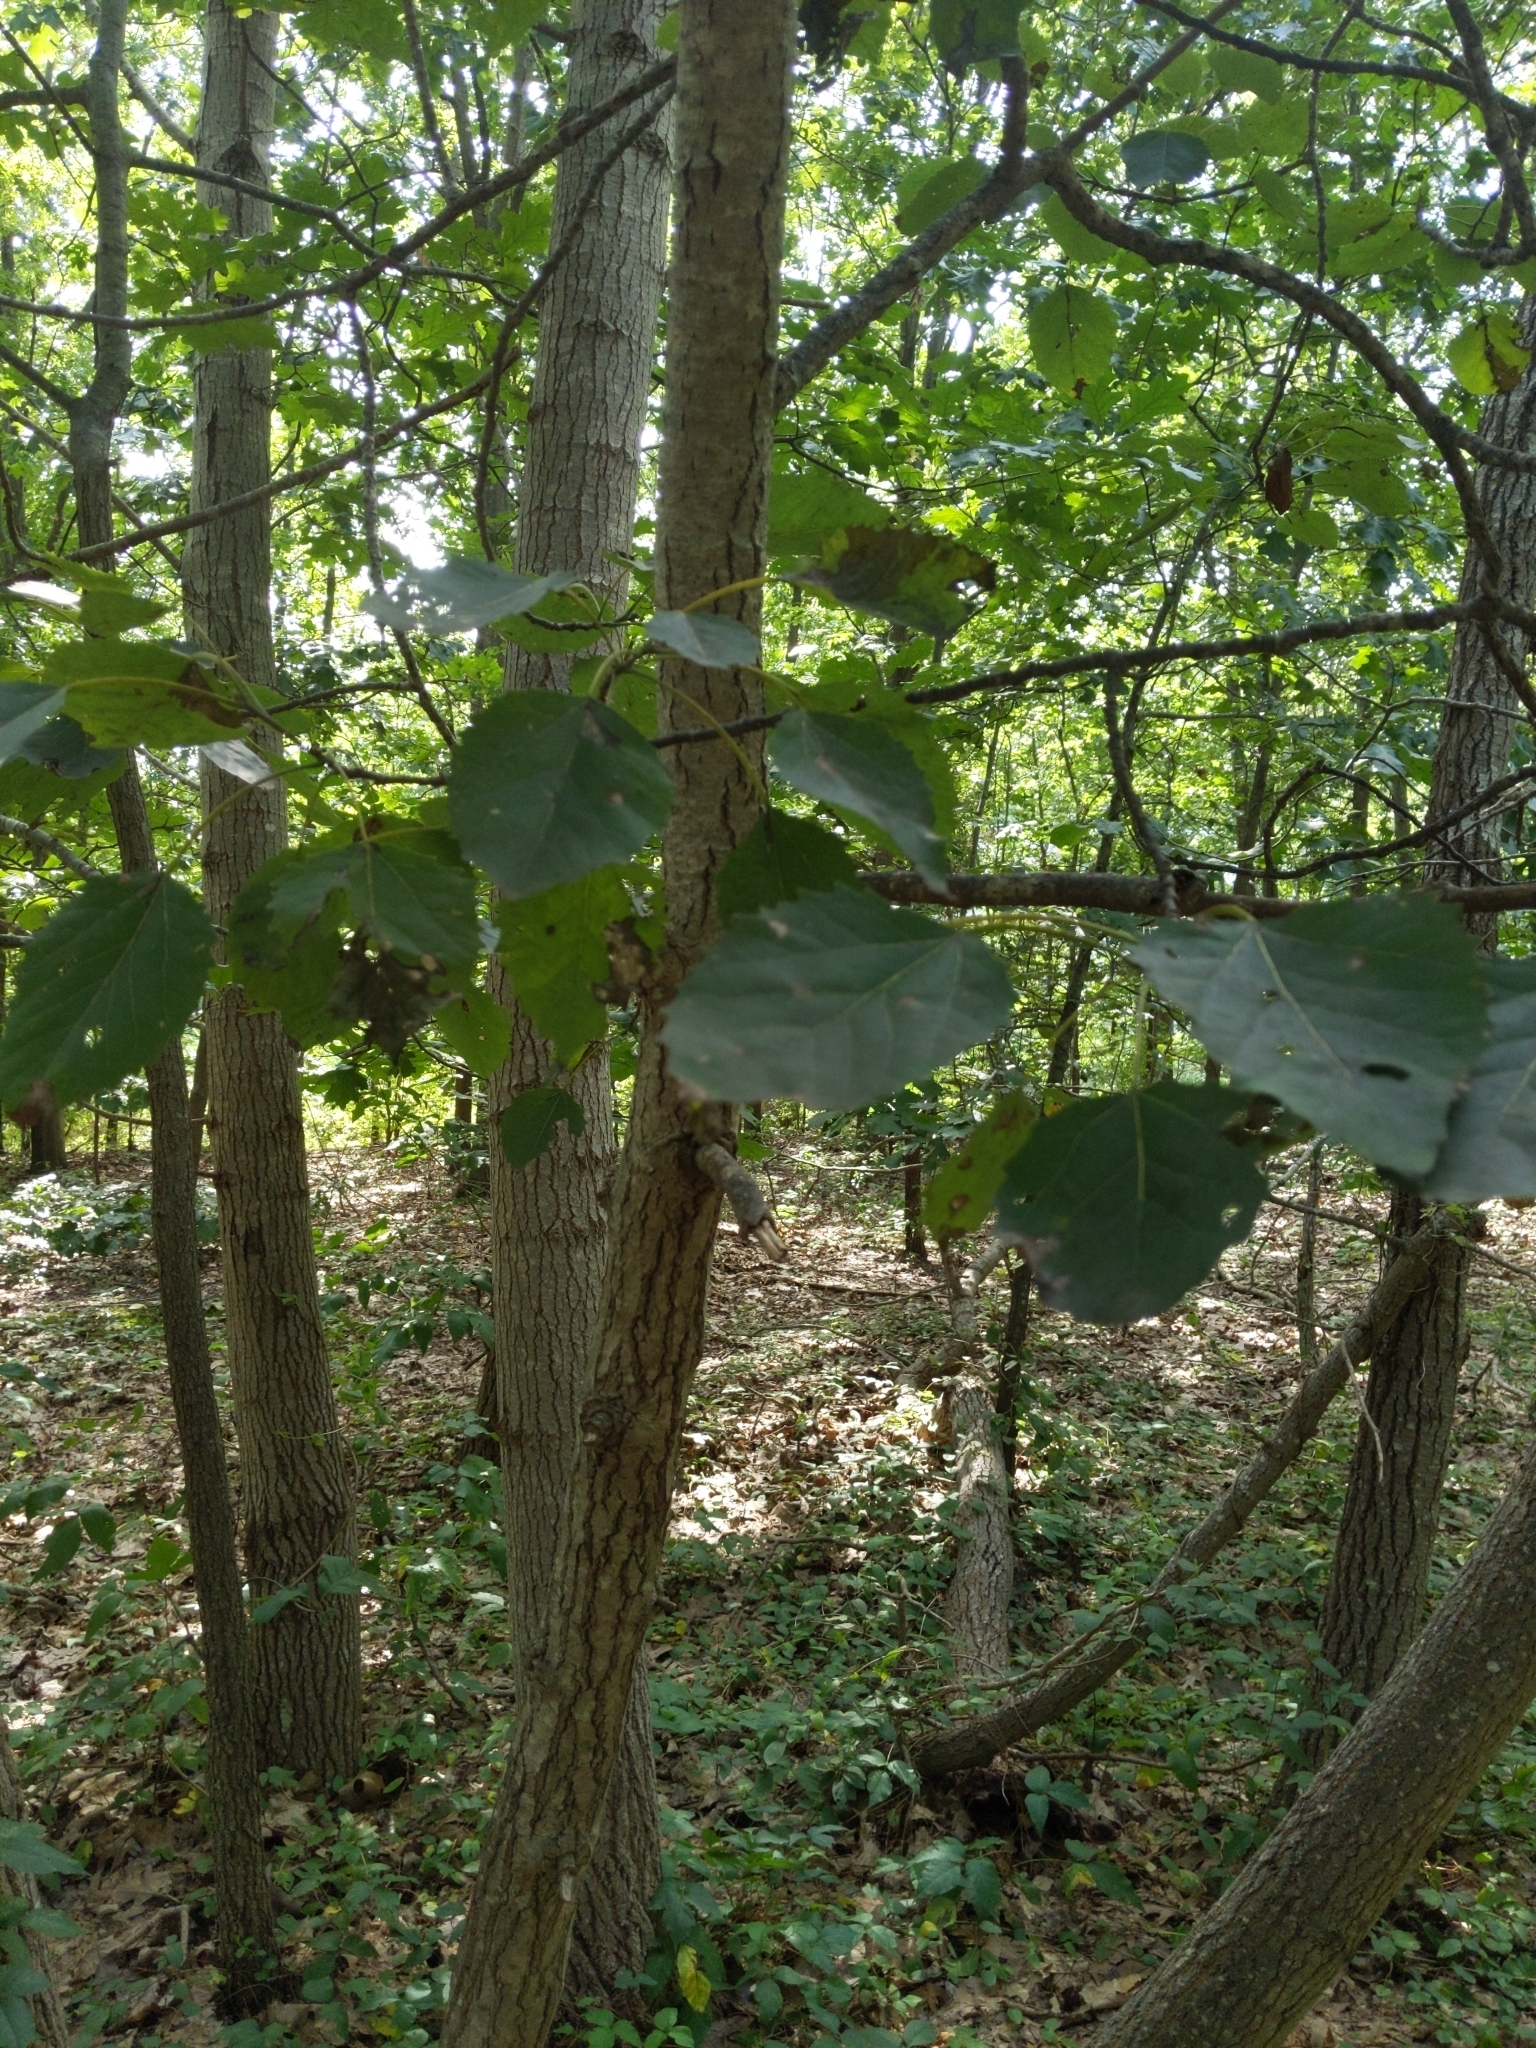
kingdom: Plantae
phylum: Tracheophyta
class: Magnoliopsida
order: Malpighiales
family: Salicaceae
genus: Populus
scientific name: Populus grandidentata
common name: Bigtooth aspen
